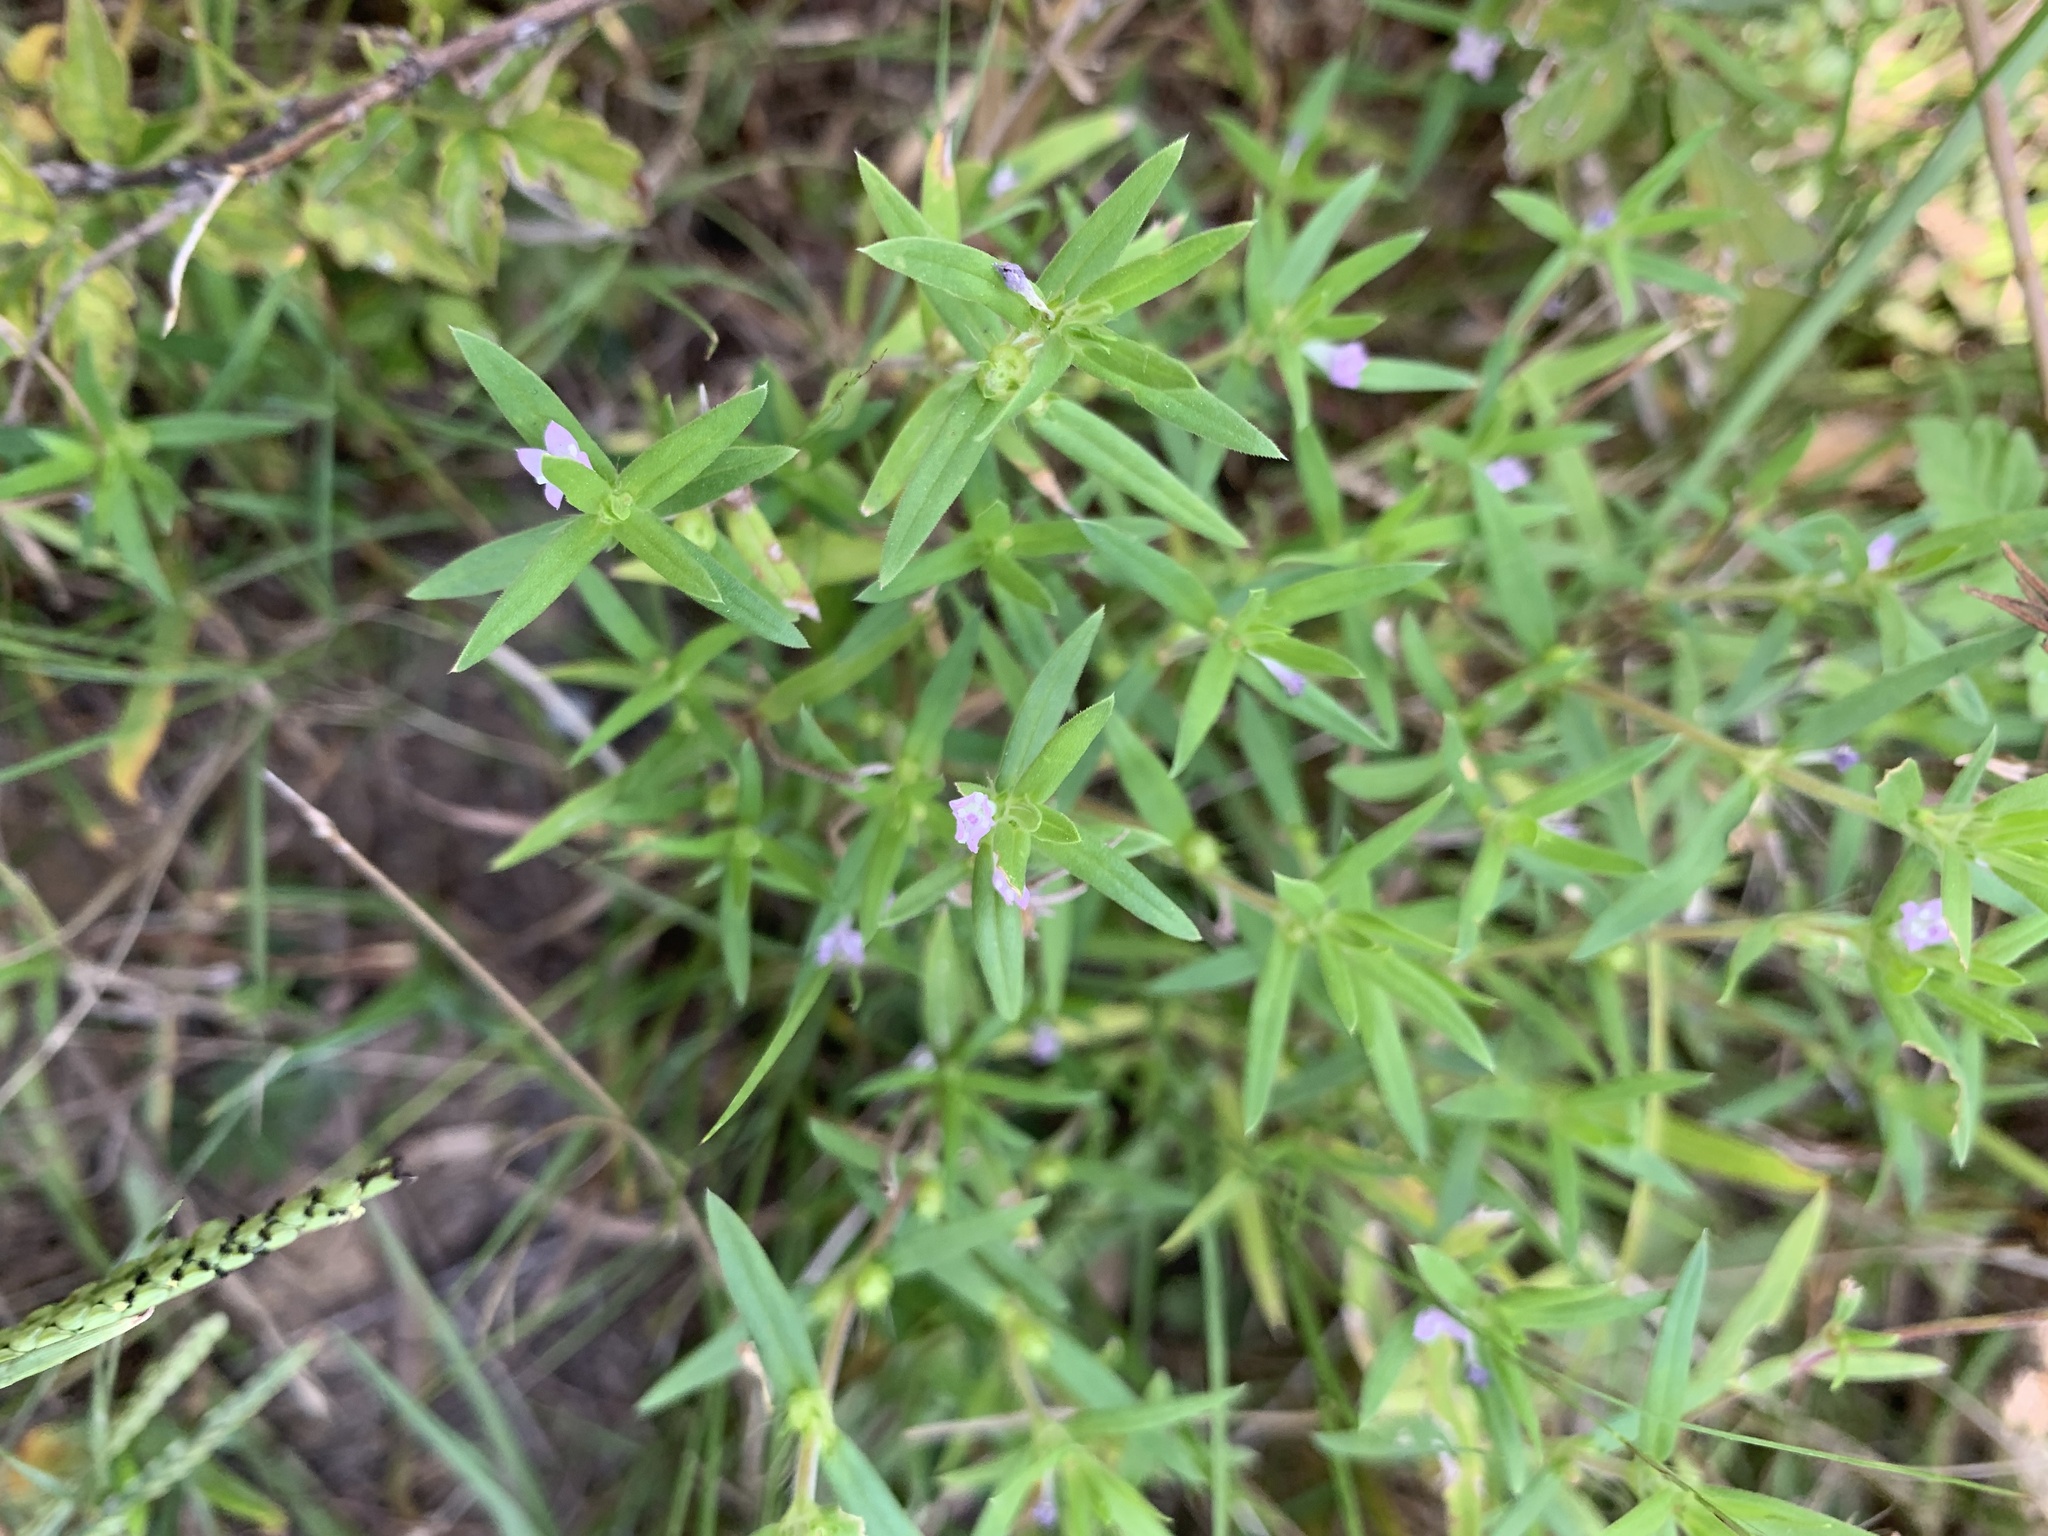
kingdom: Plantae
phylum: Tracheophyta
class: Magnoliopsida
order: Gentianales
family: Rubiaceae
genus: Hexasepalum
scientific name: Hexasepalum teres
